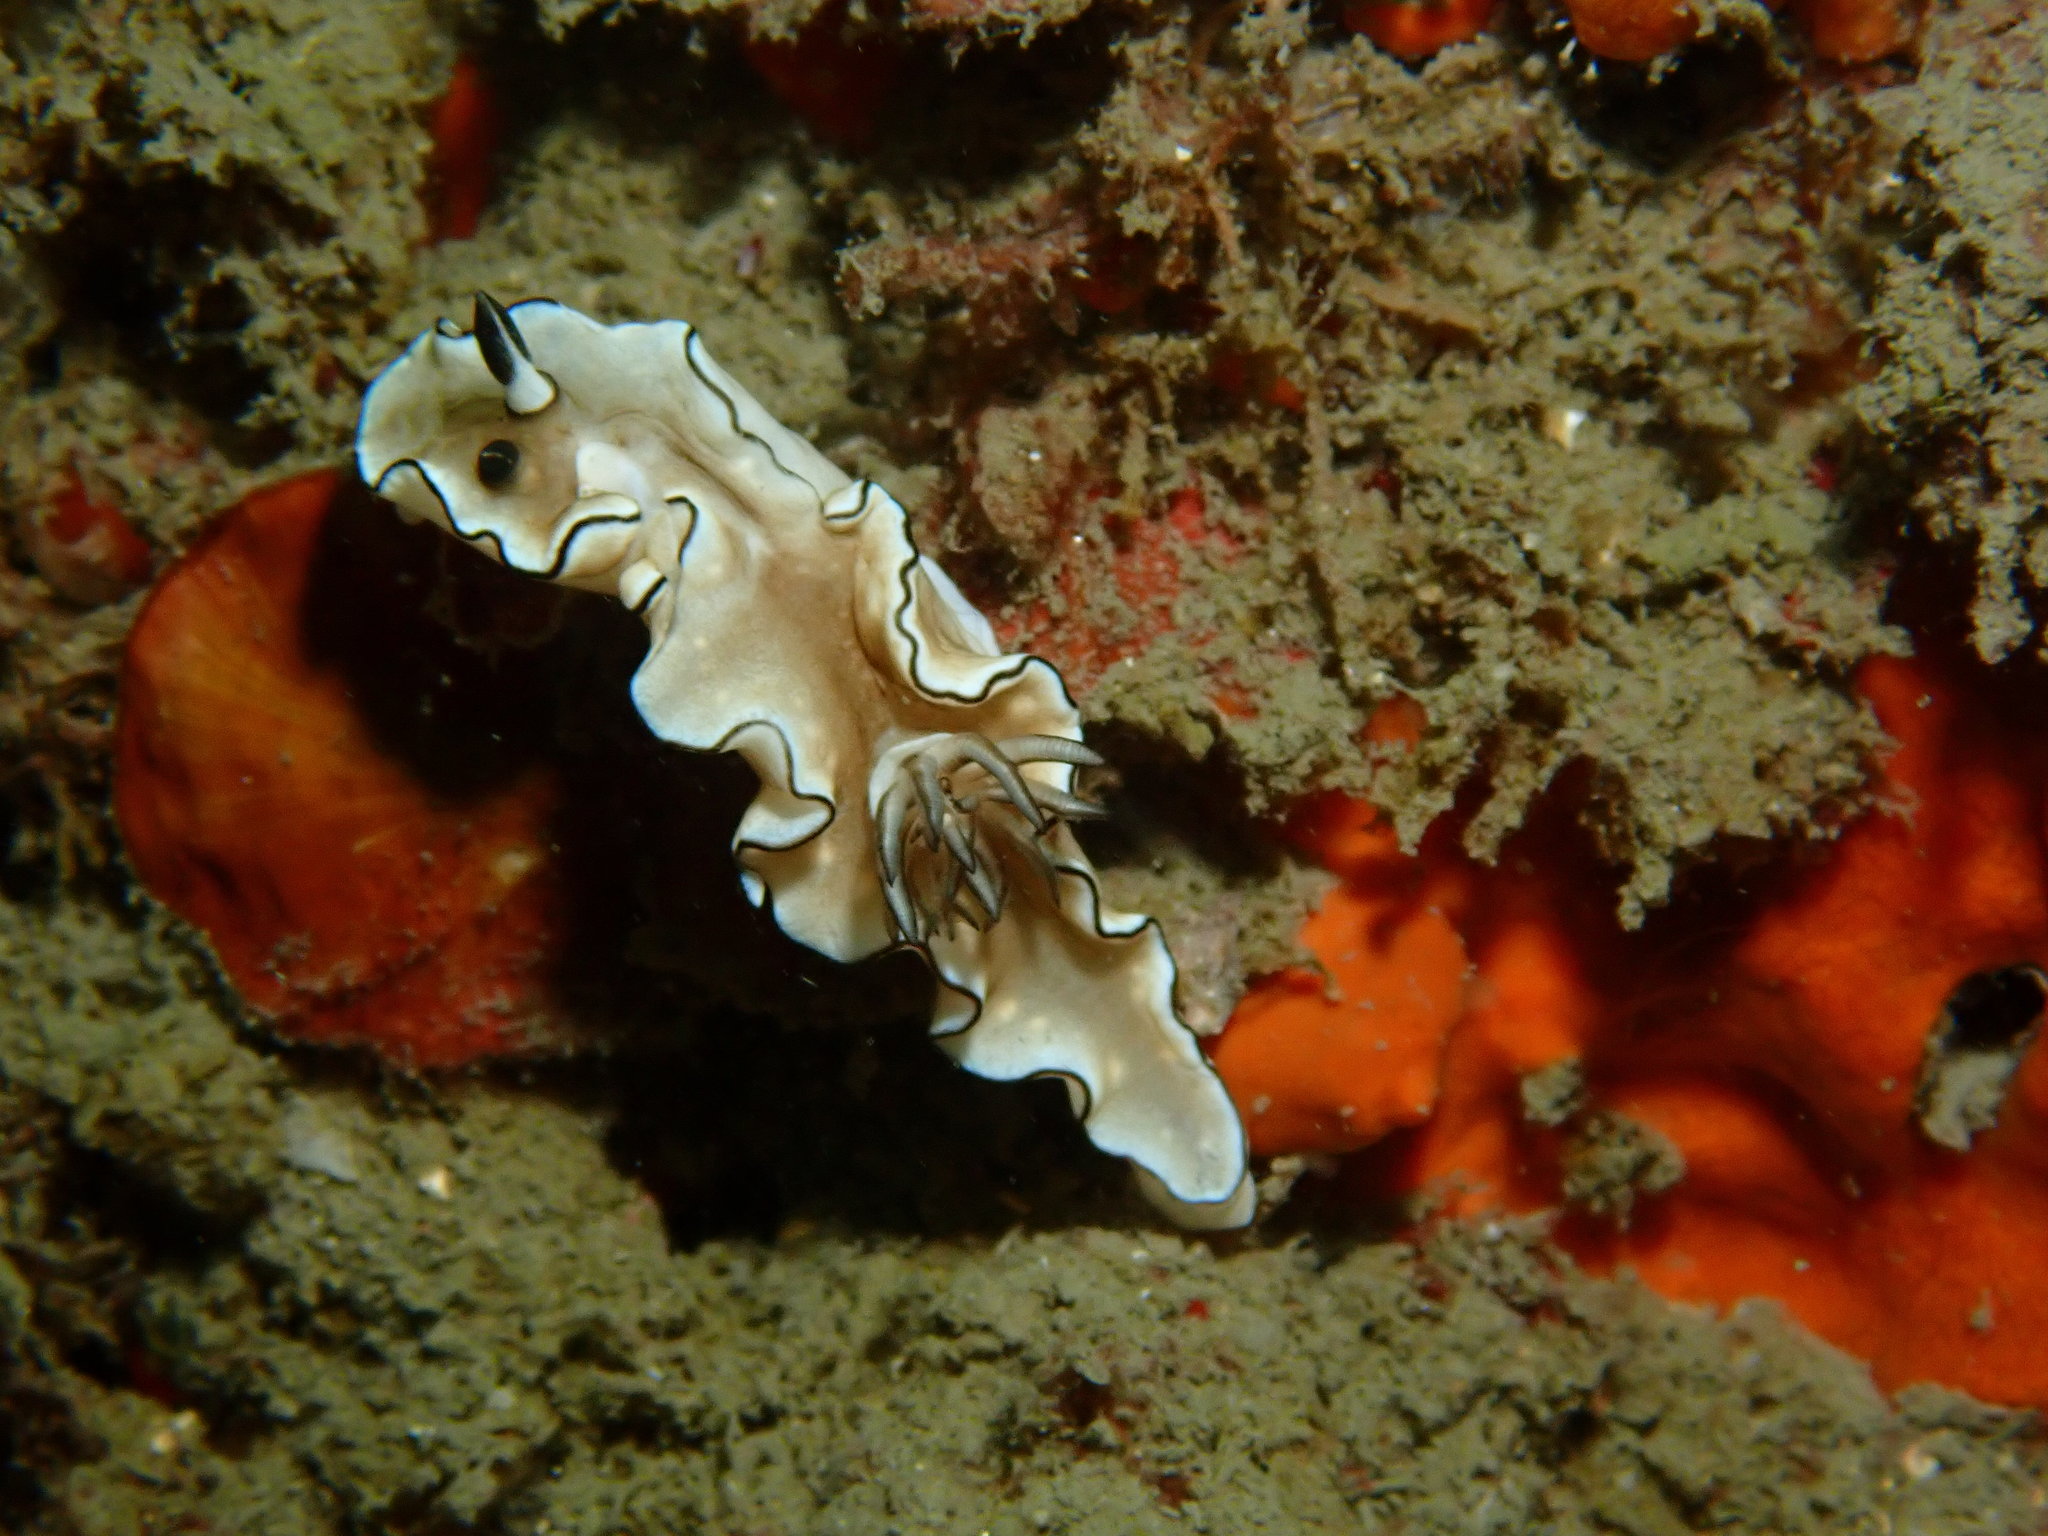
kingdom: Animalia
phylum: Mollusca
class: Gastropoda
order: Nudibranchia
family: Chromodorididae
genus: Doriprismatica
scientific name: Doriprismatica atromarginata
